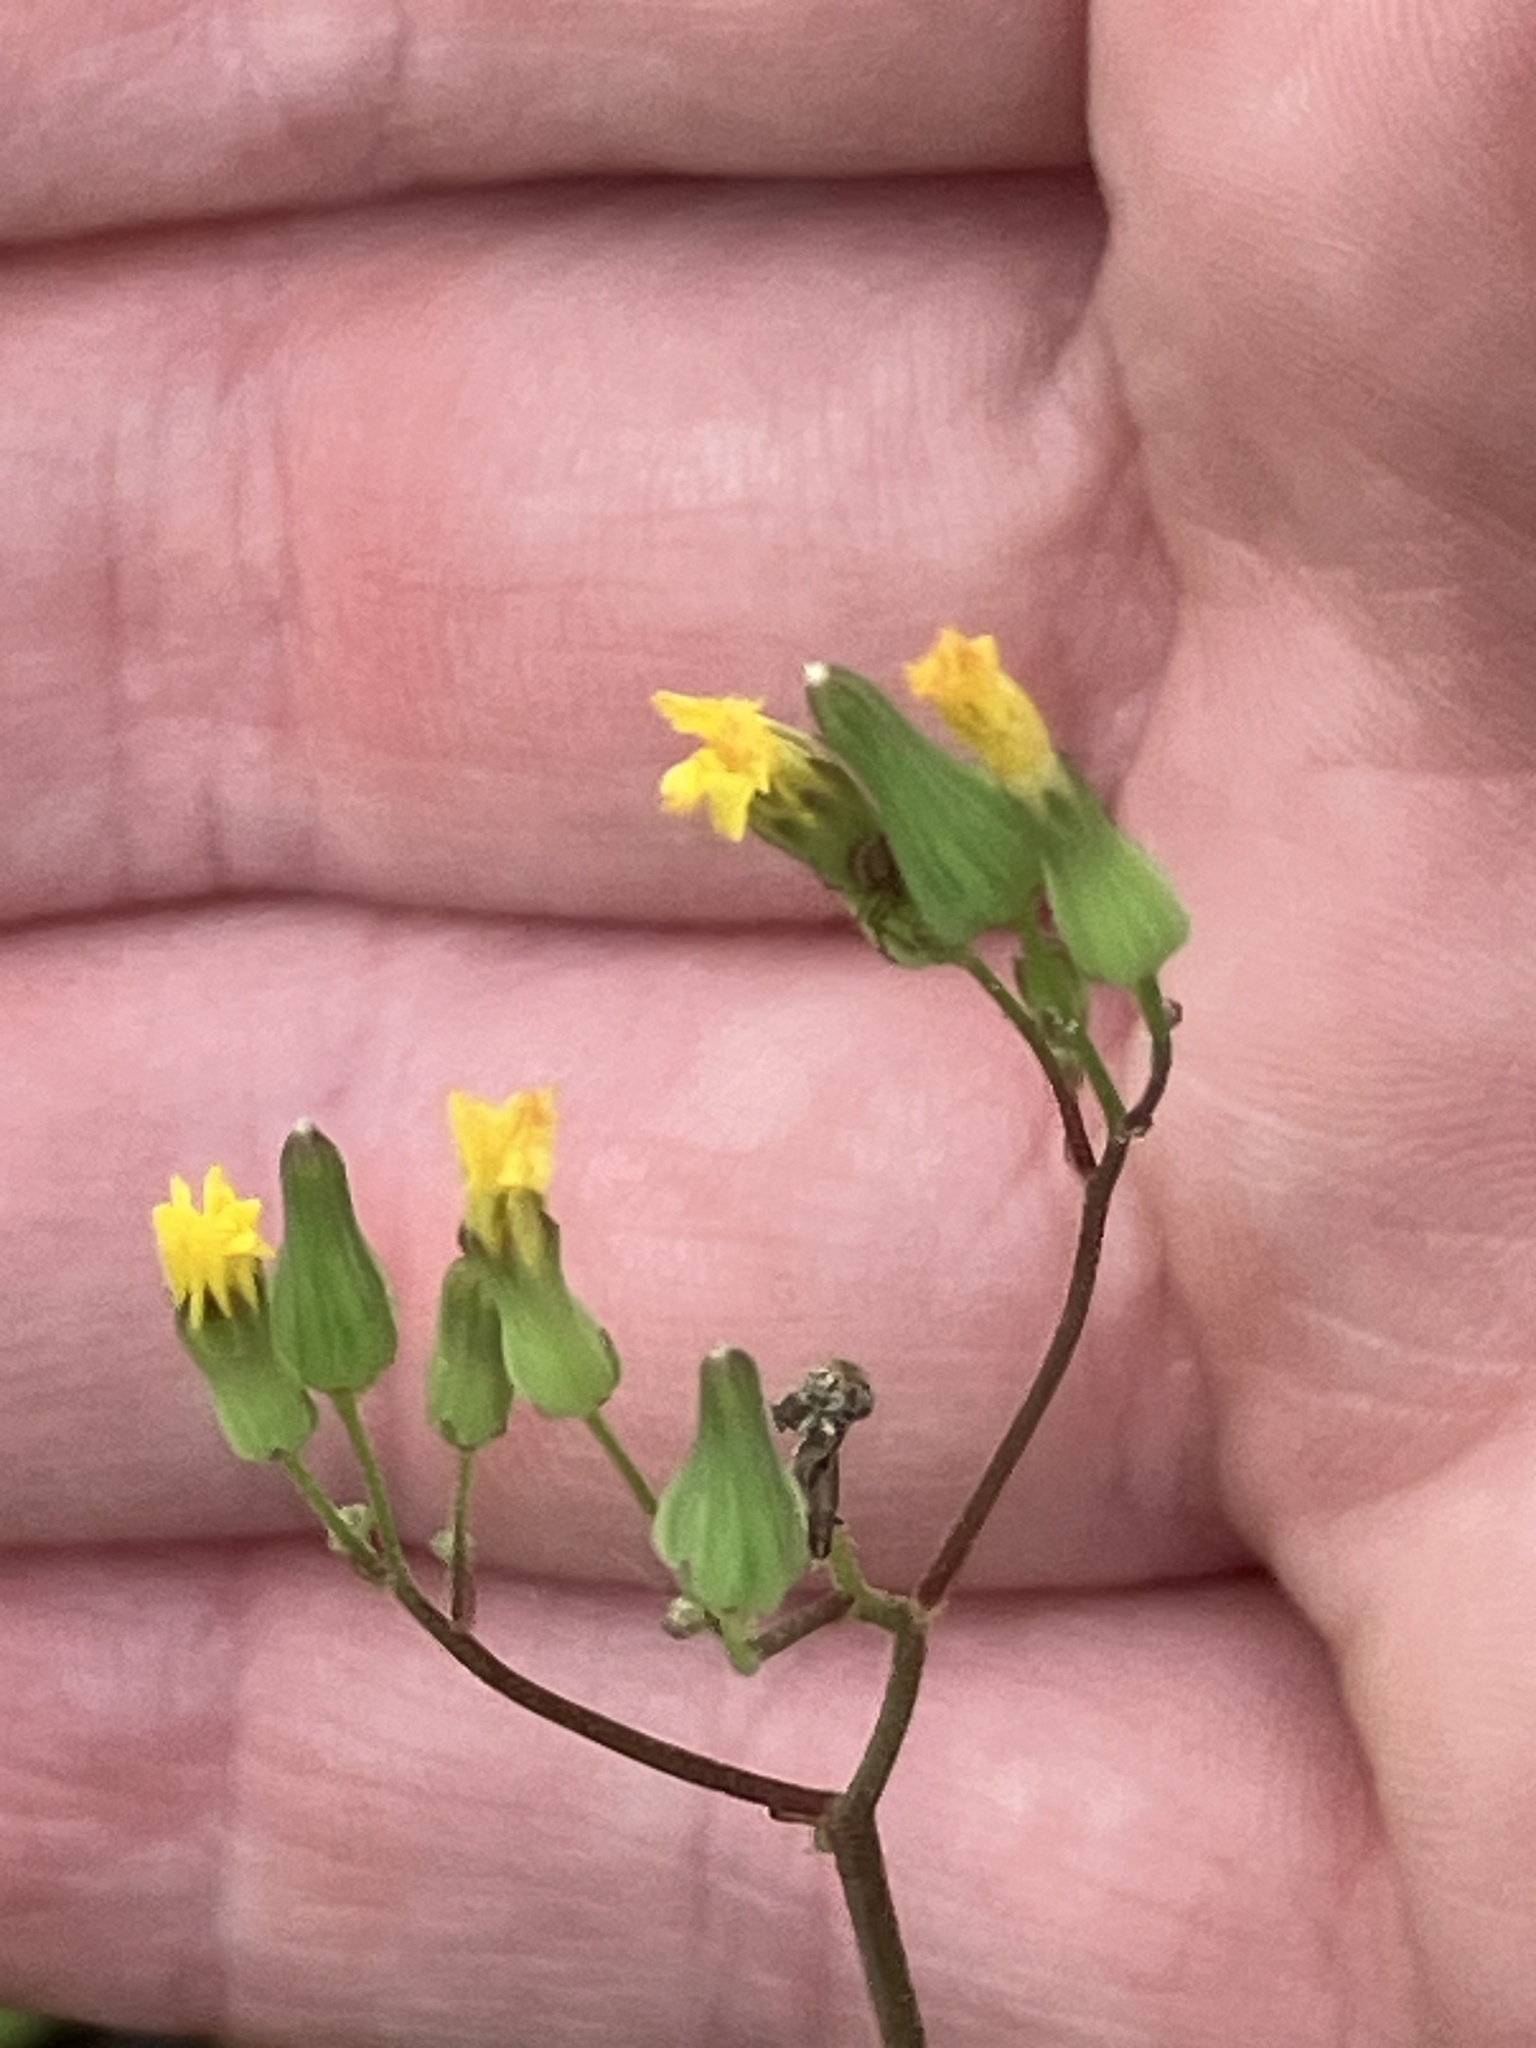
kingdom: Plantae
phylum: Tracheophyta
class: Magnoliopsida
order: Asterales
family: Asteraceae
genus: Youngia
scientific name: Youngia japonica
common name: Oriental false hawksbeard
